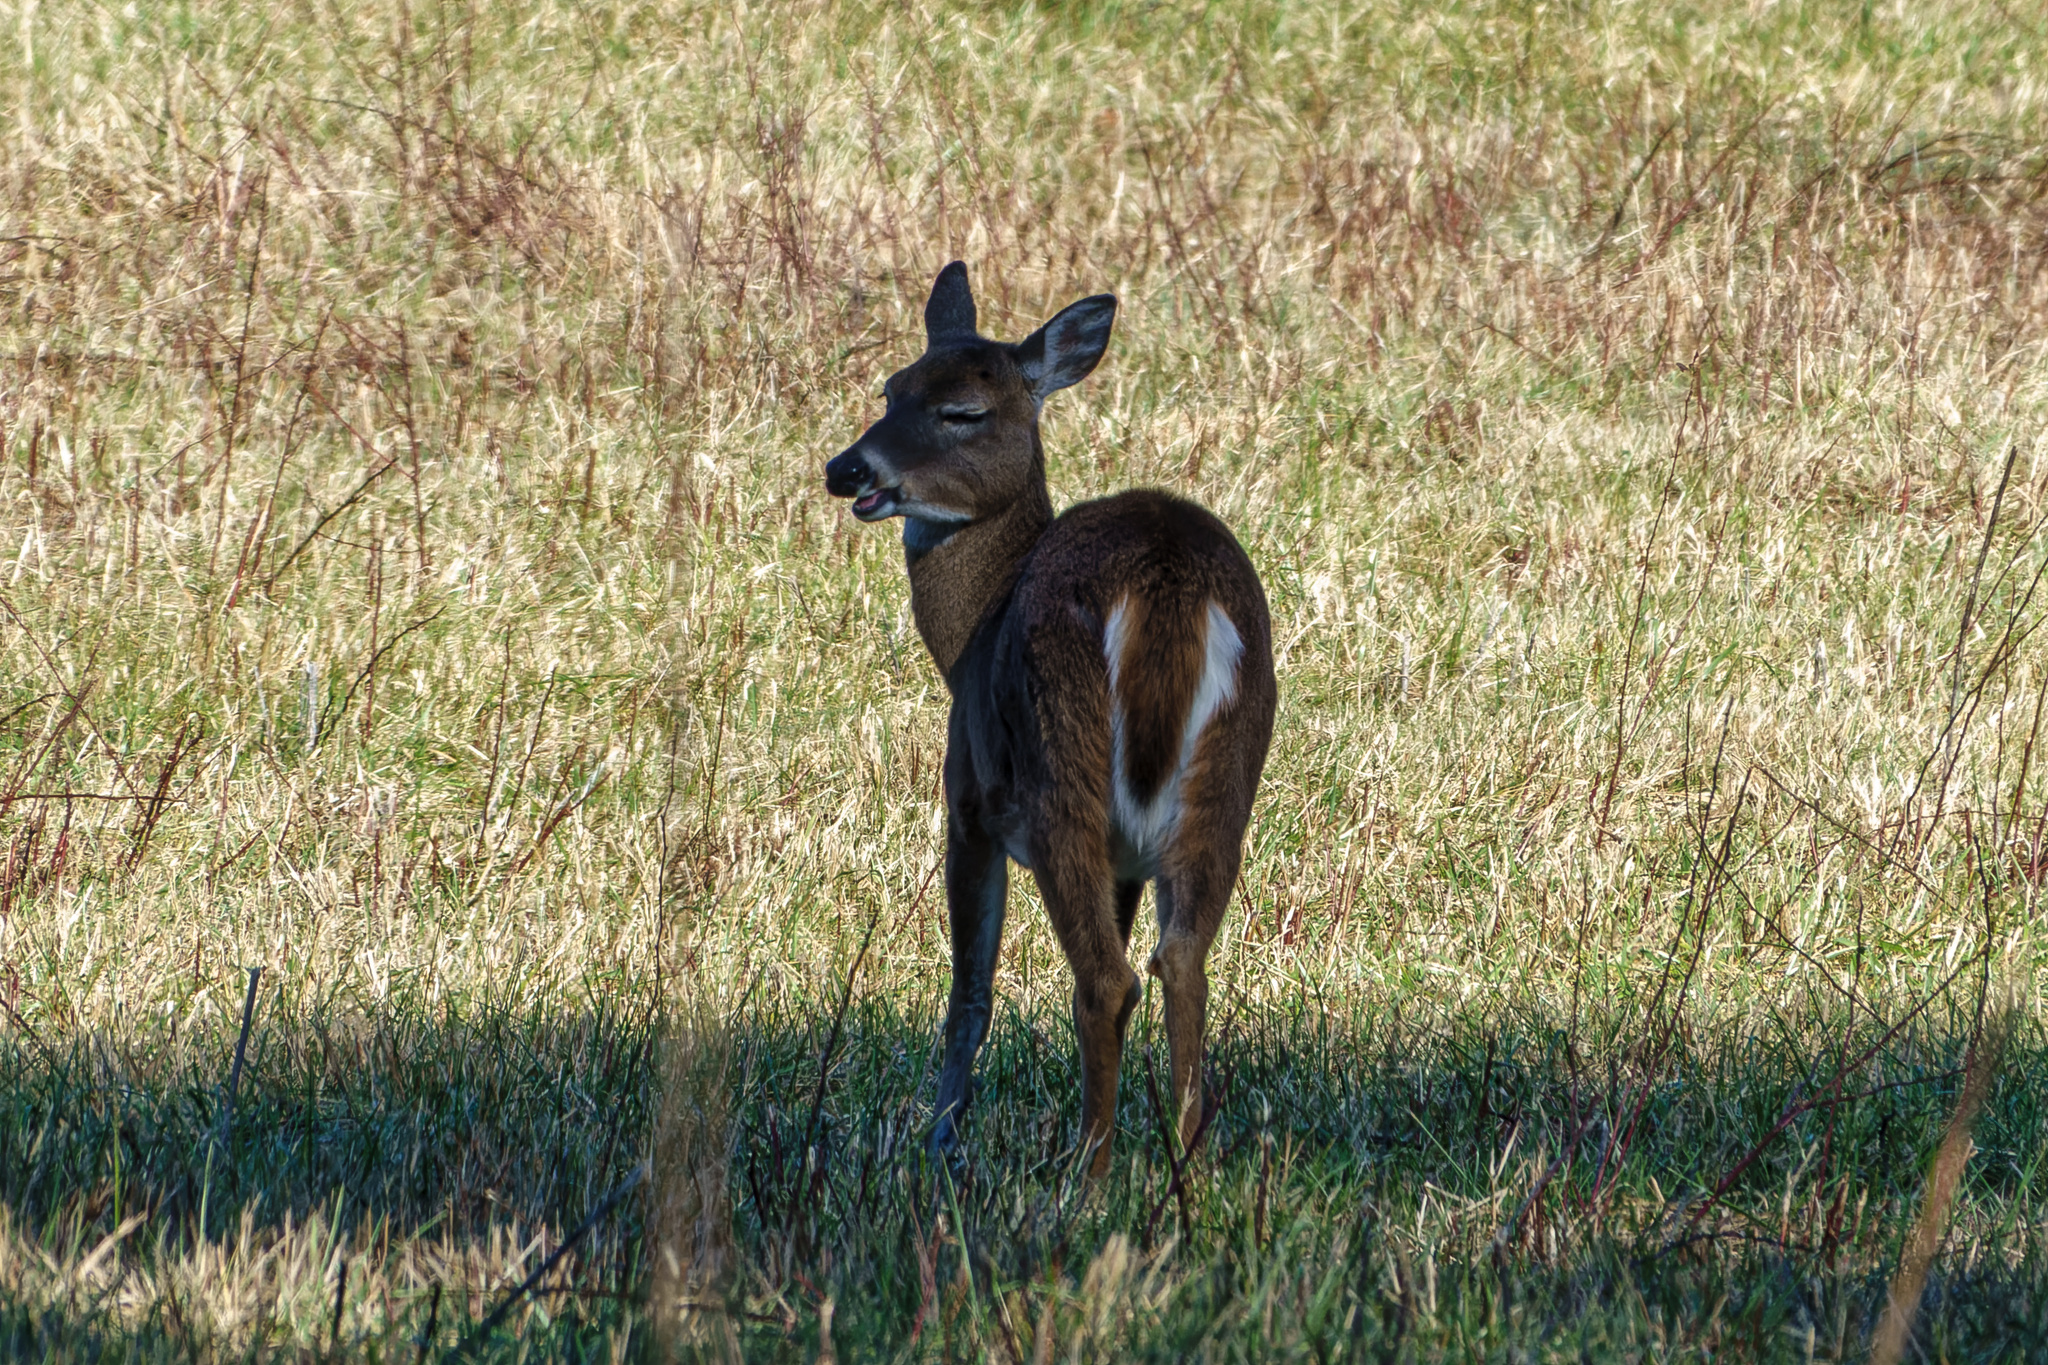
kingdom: Animalia
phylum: Chordata
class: Mammalia
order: Artiodactyla
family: Cervidae
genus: Odocoileus
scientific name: Odocoileus virginianus
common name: White-tailed deer
